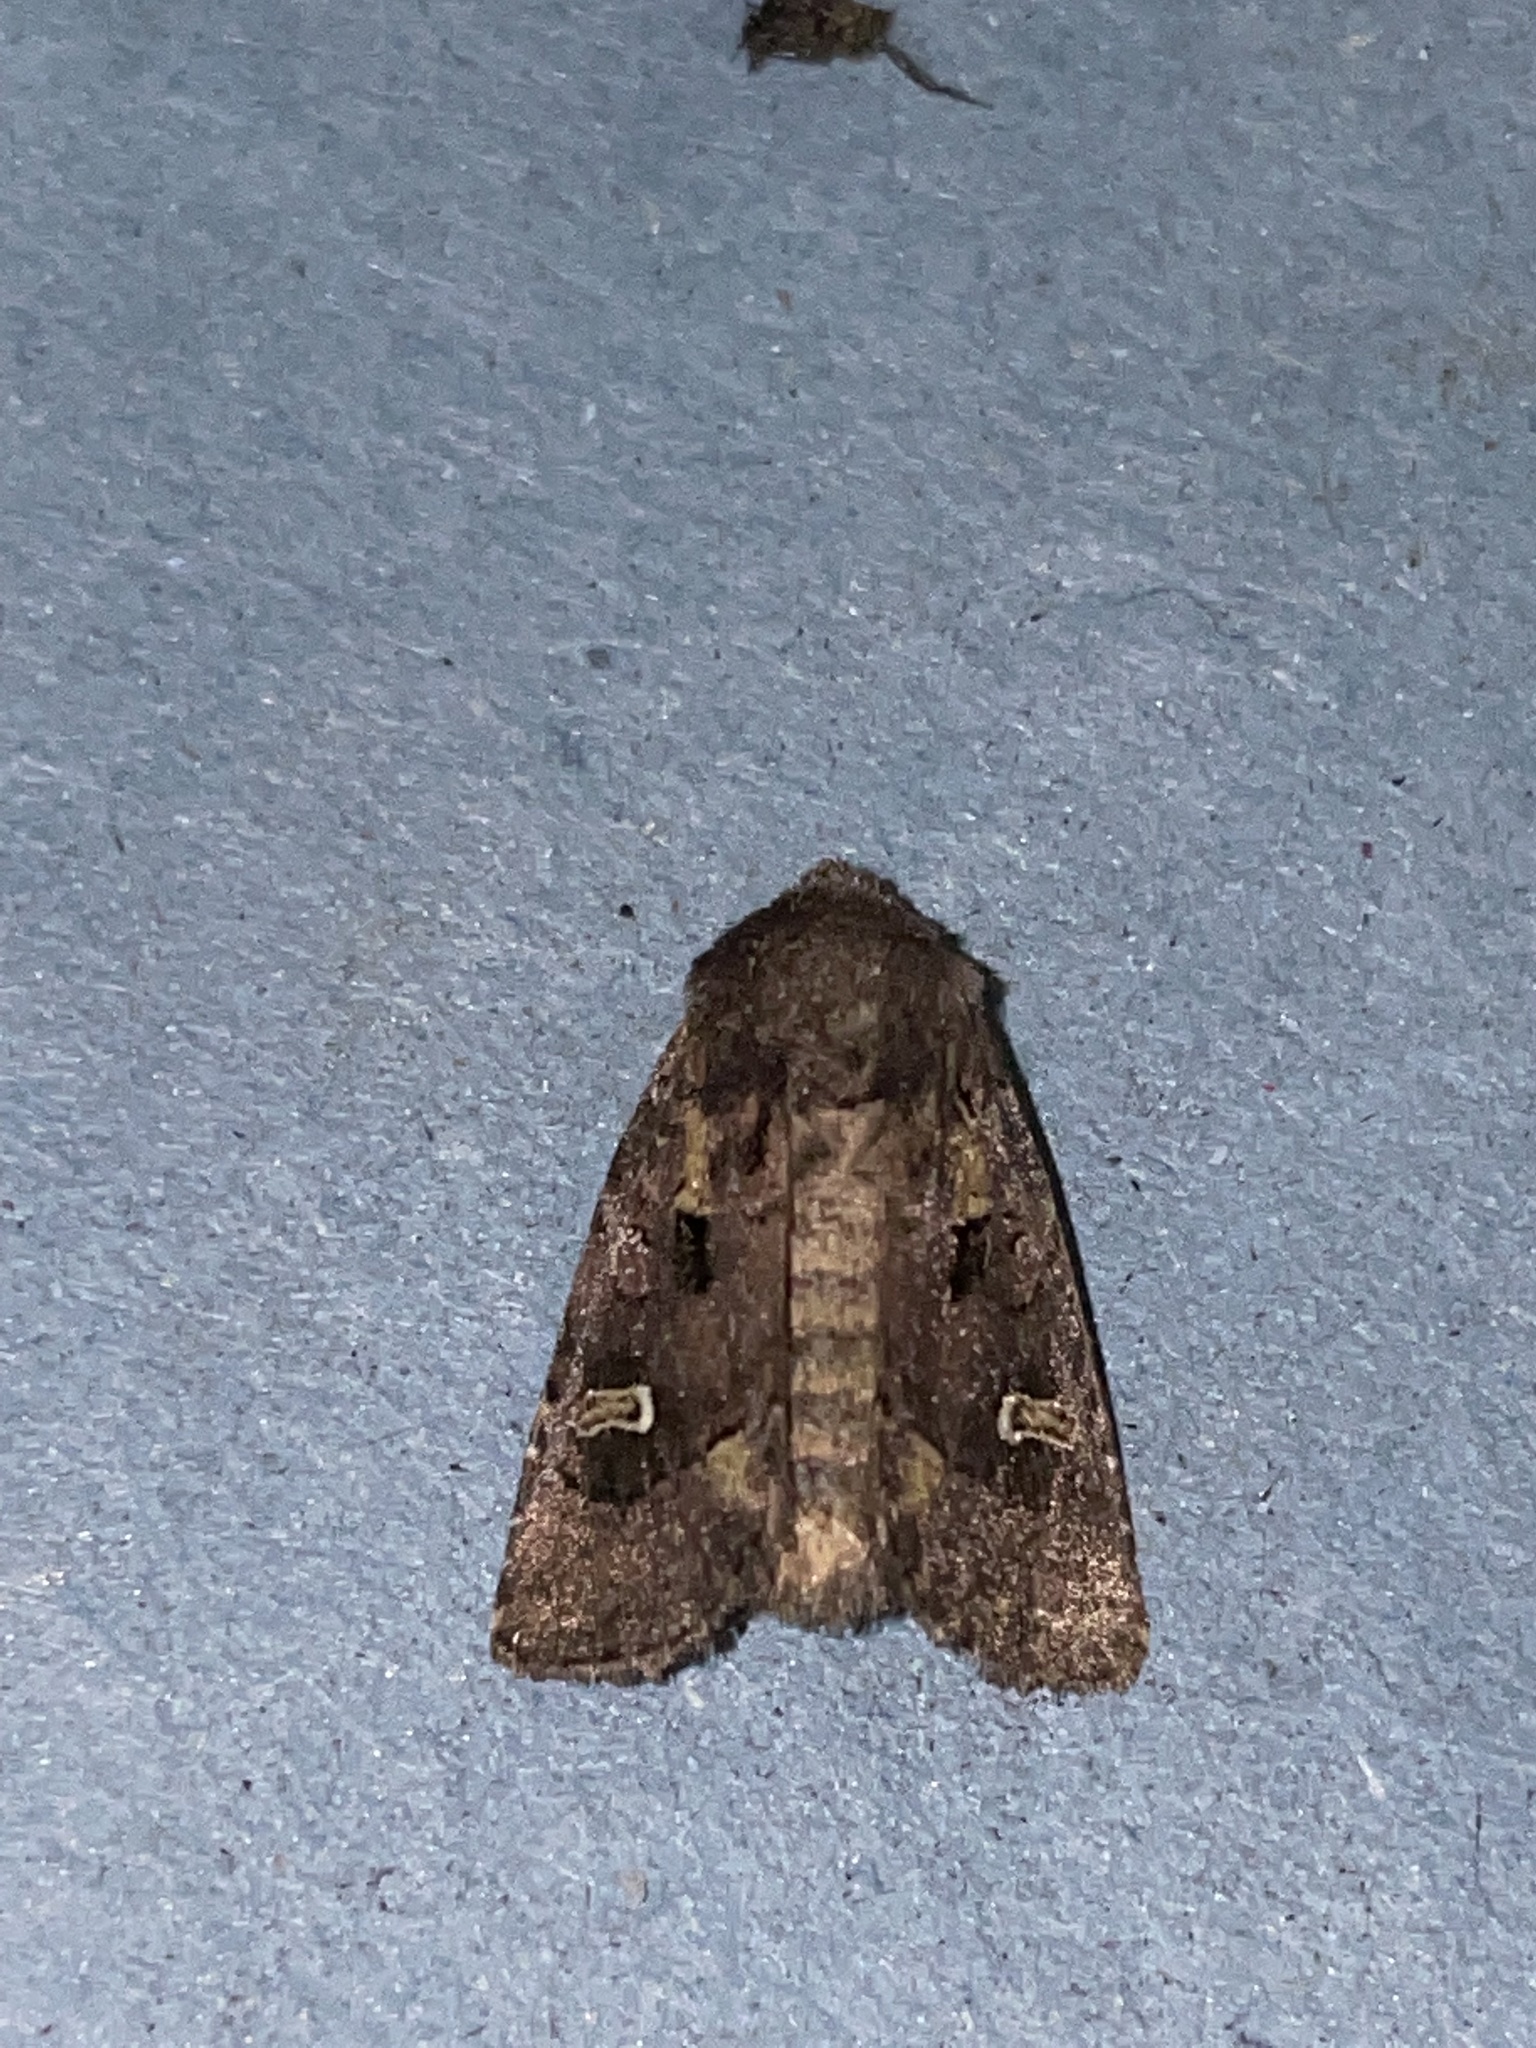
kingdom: Animalia
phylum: Arthropoda
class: Insecta
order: Lepidoptera
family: Noctuidae
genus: Lacinipolia
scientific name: Lacinipolia renigera
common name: Kidney-spotted minor
